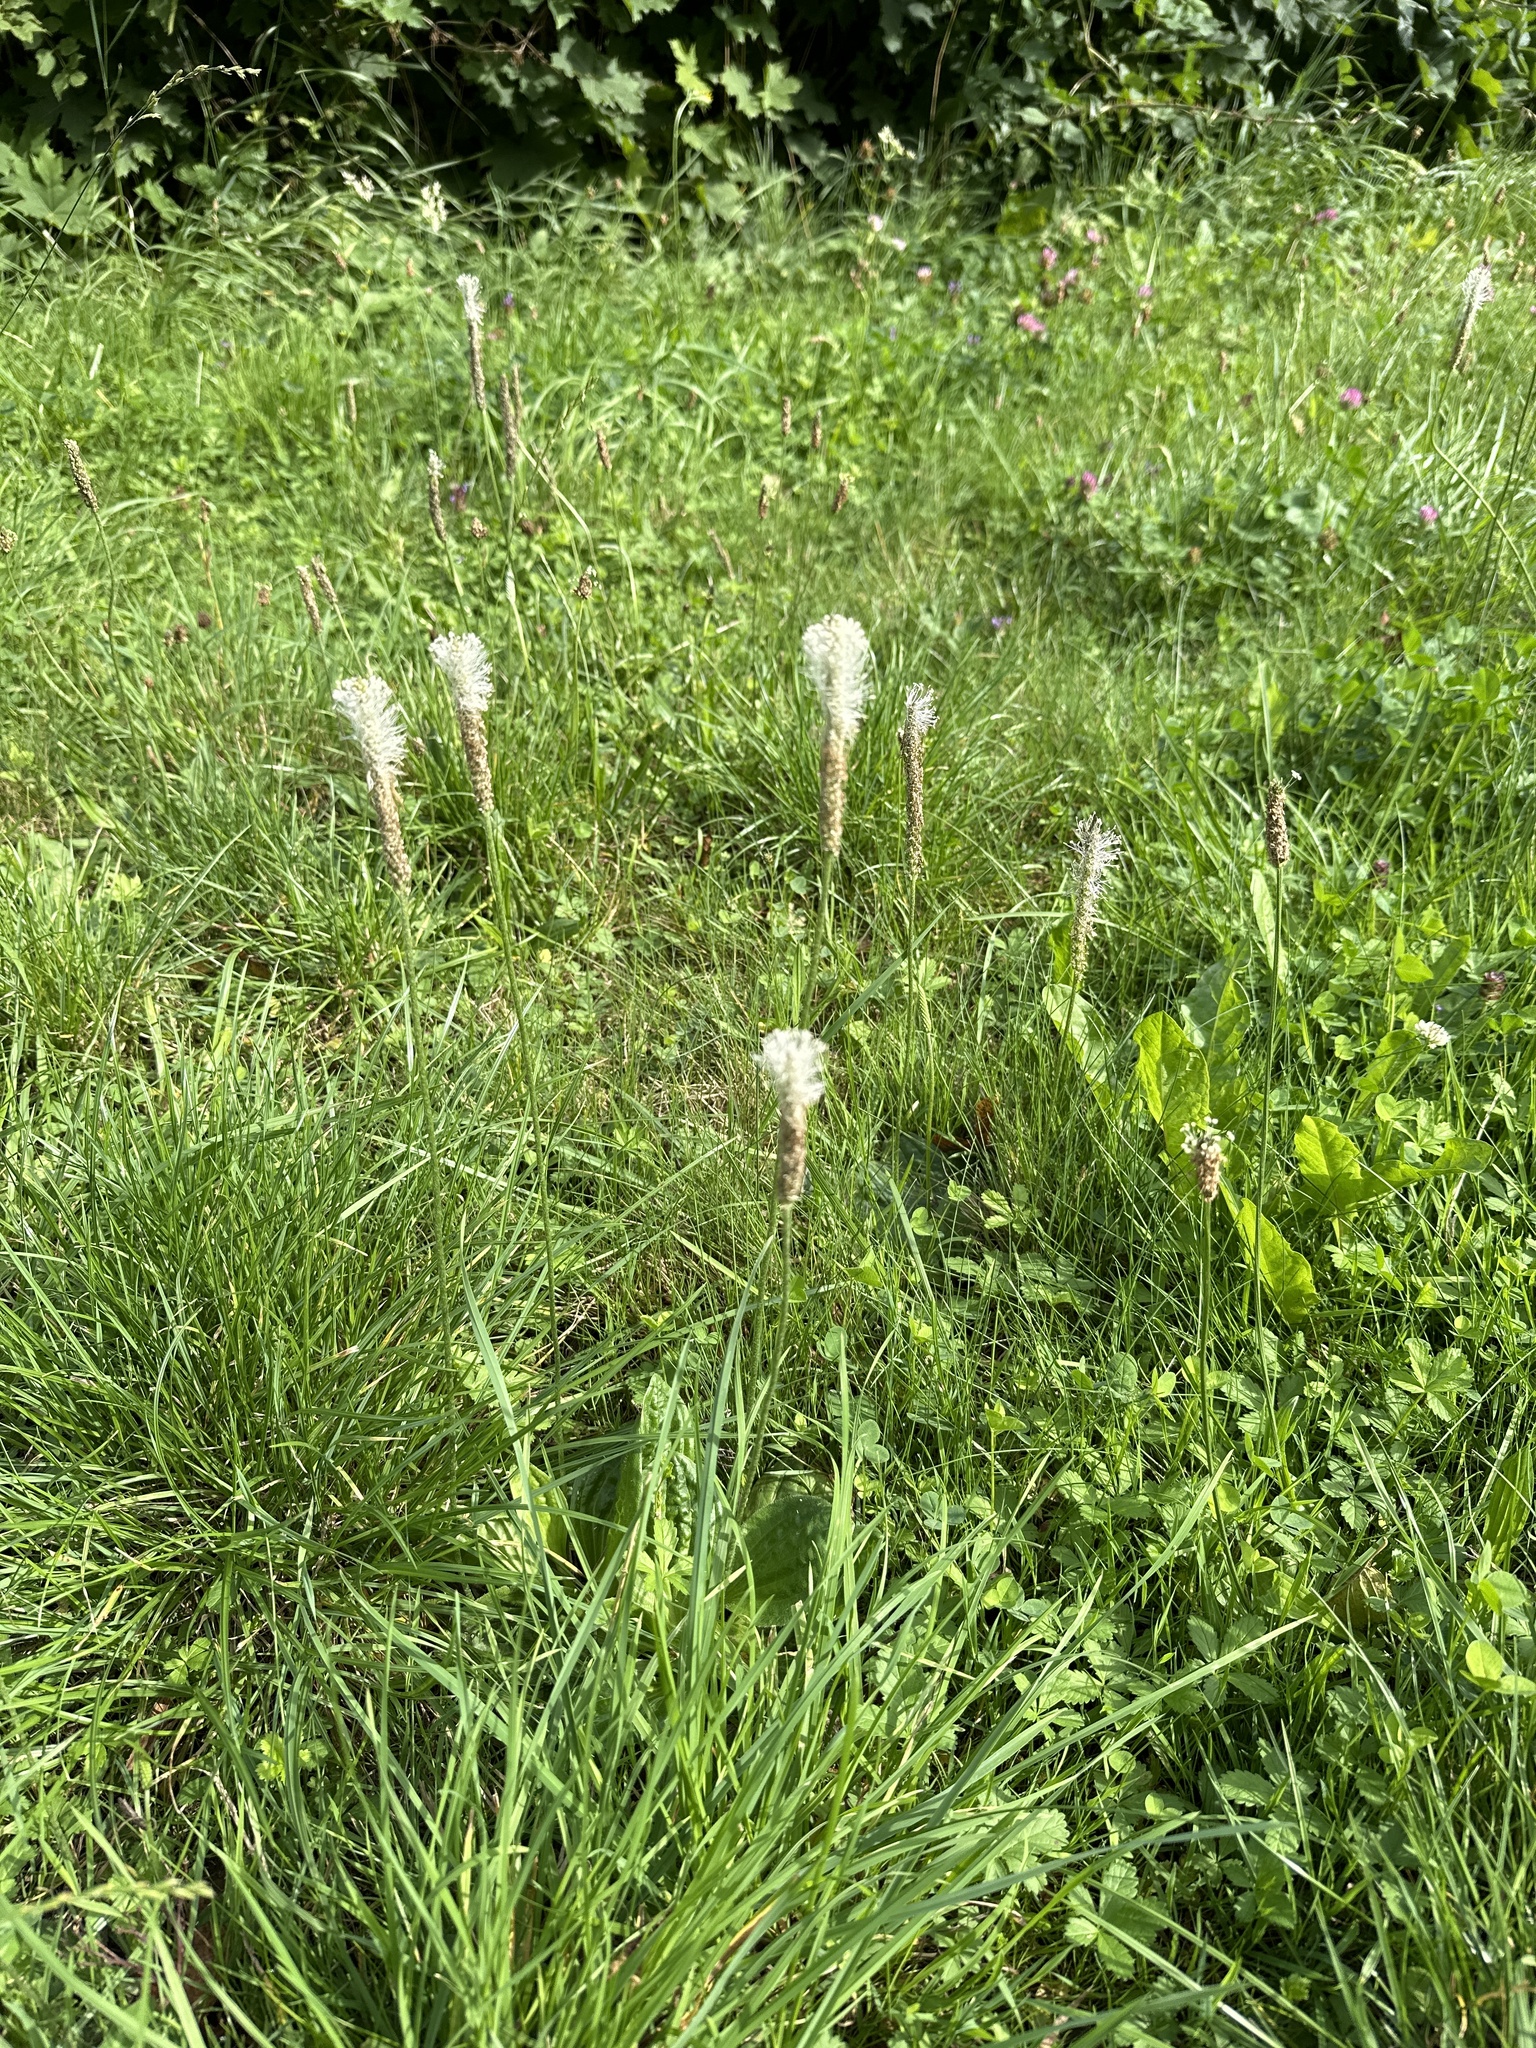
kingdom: Plantae
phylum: Tracheophyta
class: Magnoliopsida
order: Lamiales
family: Plantaginaceae
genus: Plantago
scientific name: Plantago media
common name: Hoary plantain
